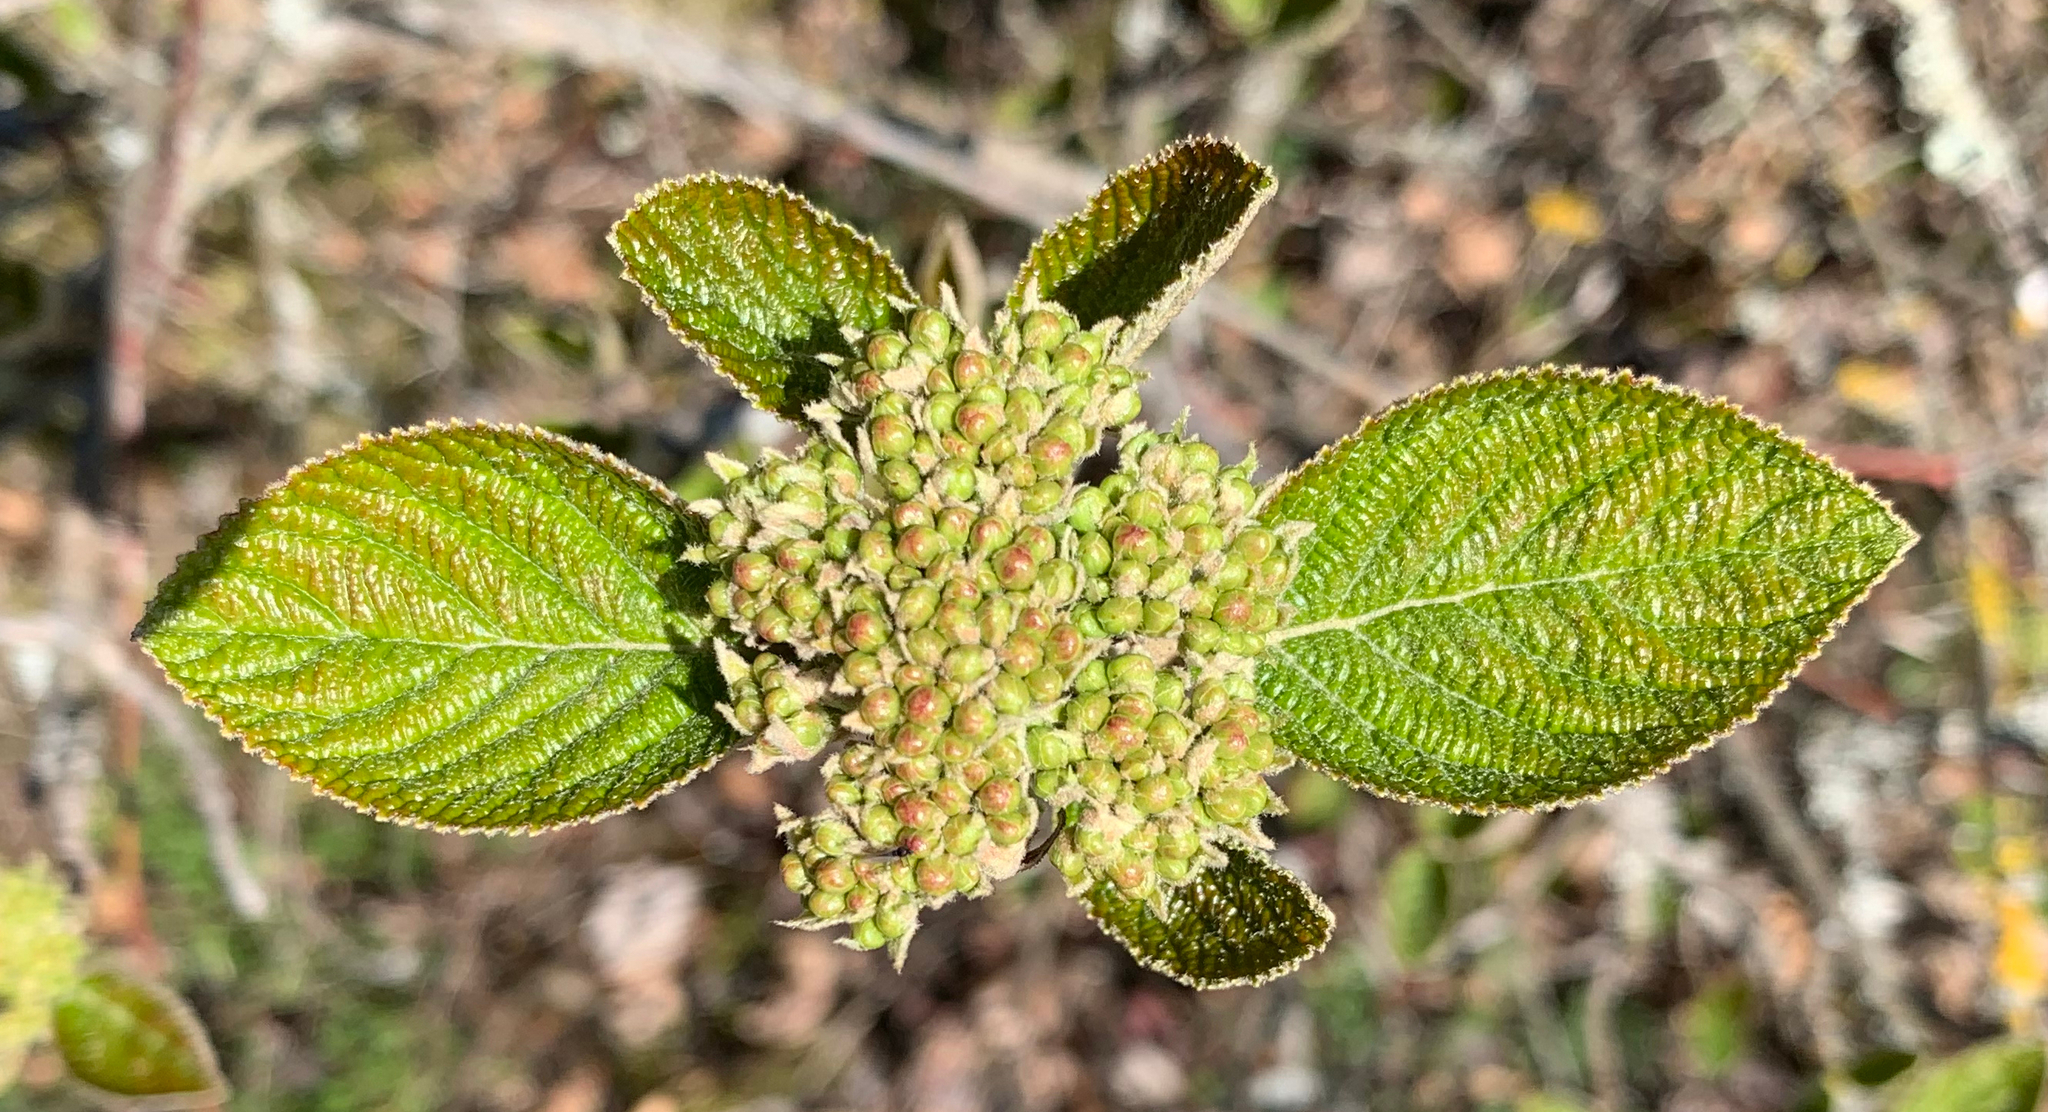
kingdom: Plantae
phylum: Tracheophyta
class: Magnoliopsida
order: Dipsacales
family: Viburnaceae
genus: Viburnum
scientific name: Viburnum lantana
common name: Wayfaring tree
